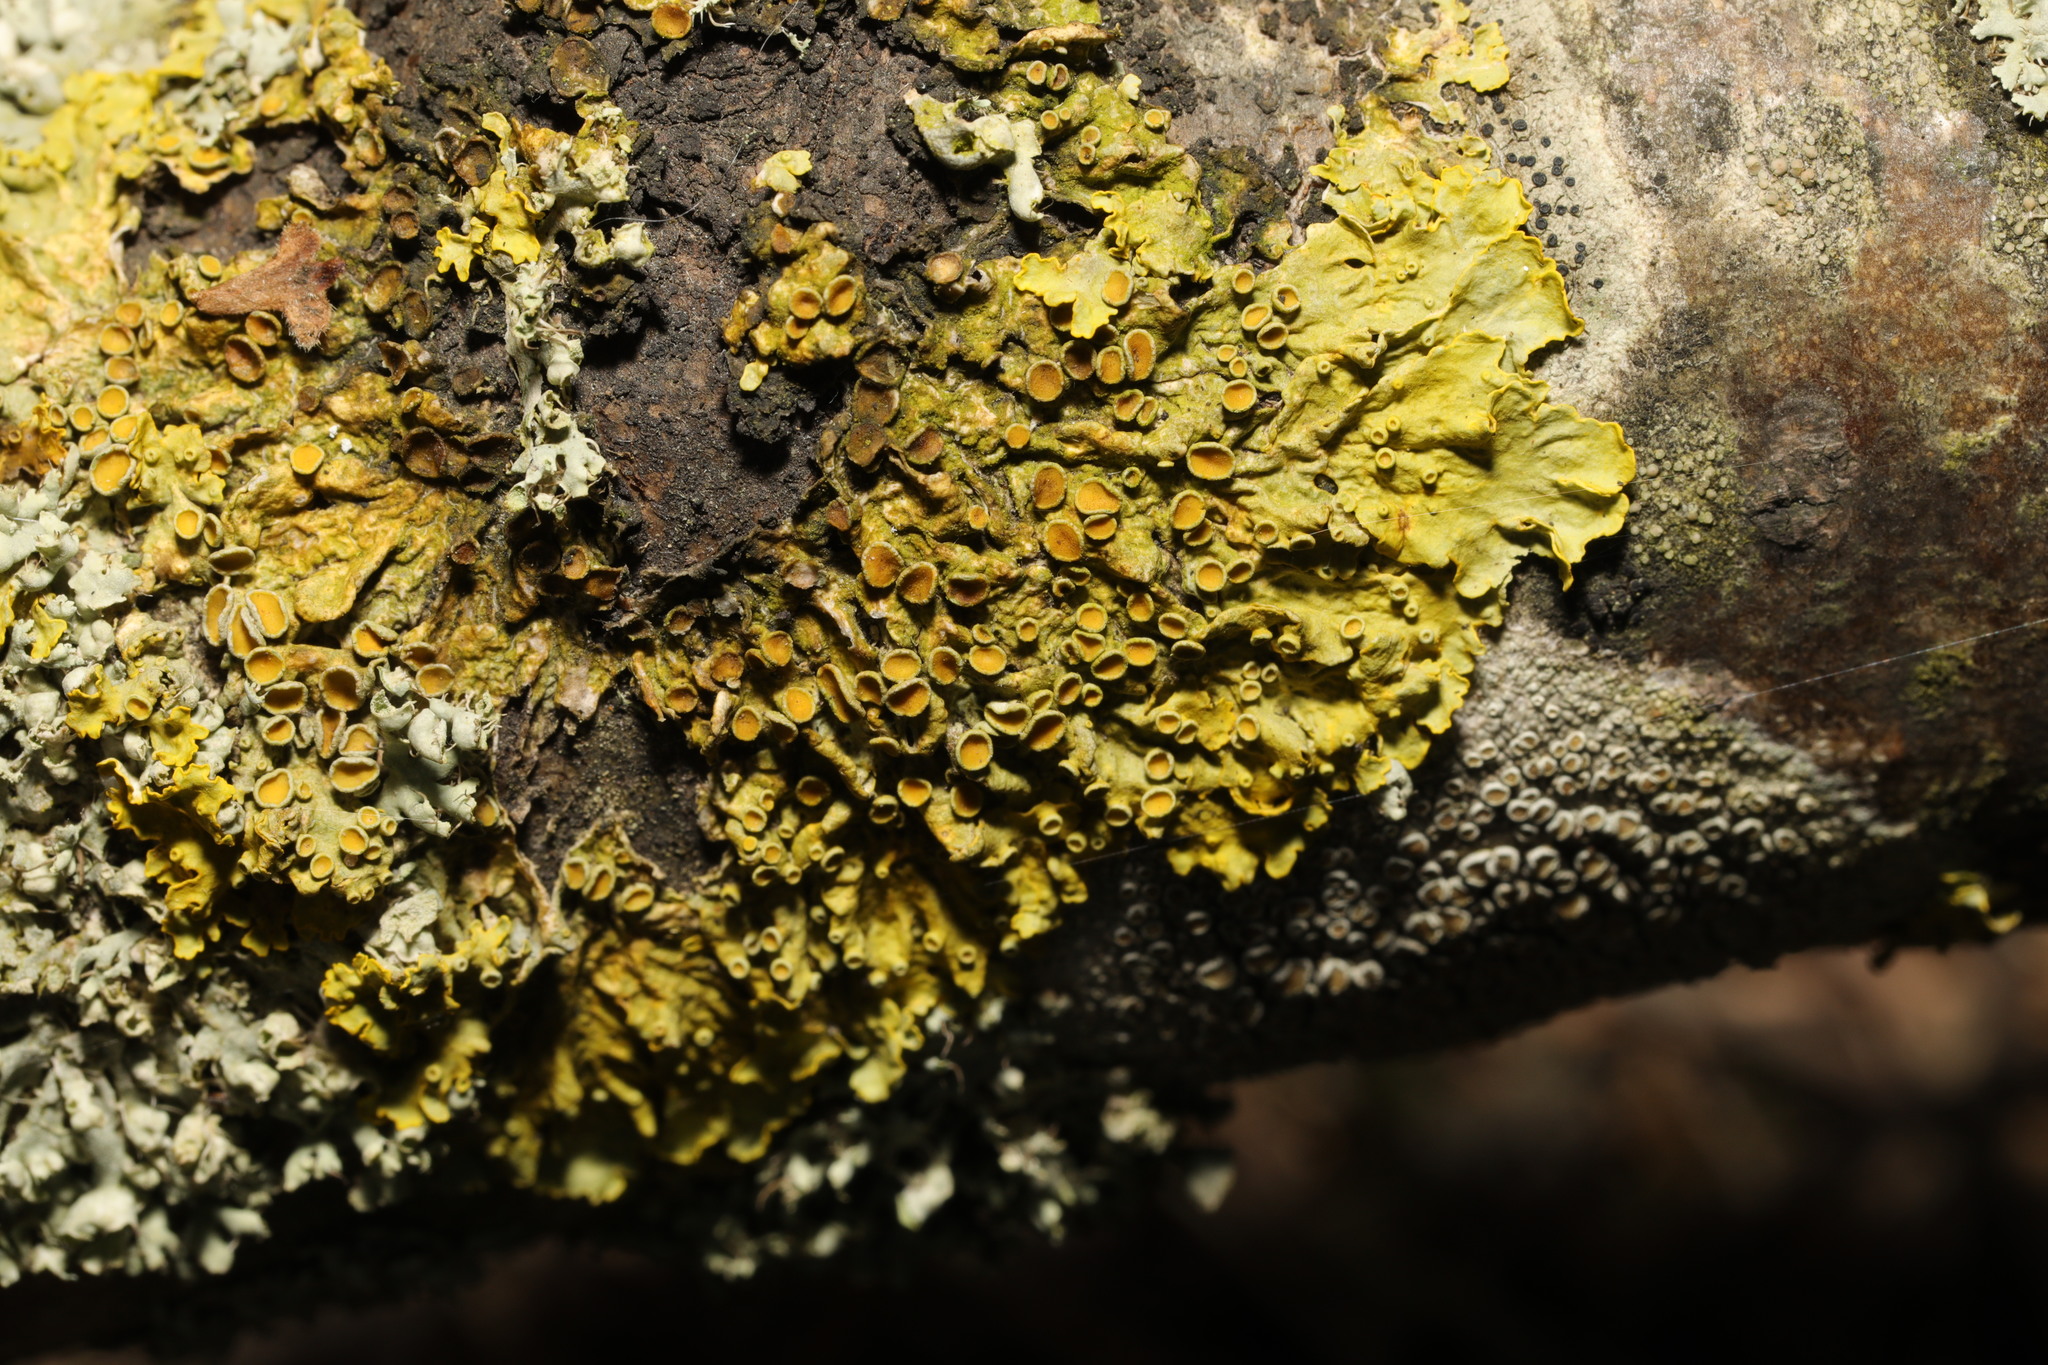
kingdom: Fungi
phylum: Ascomycota
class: Lecanoromycetes
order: Teloschistales
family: Teloschistaceae
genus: Xanthoria
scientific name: Xanthoria parietina
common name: Common orange lichen
